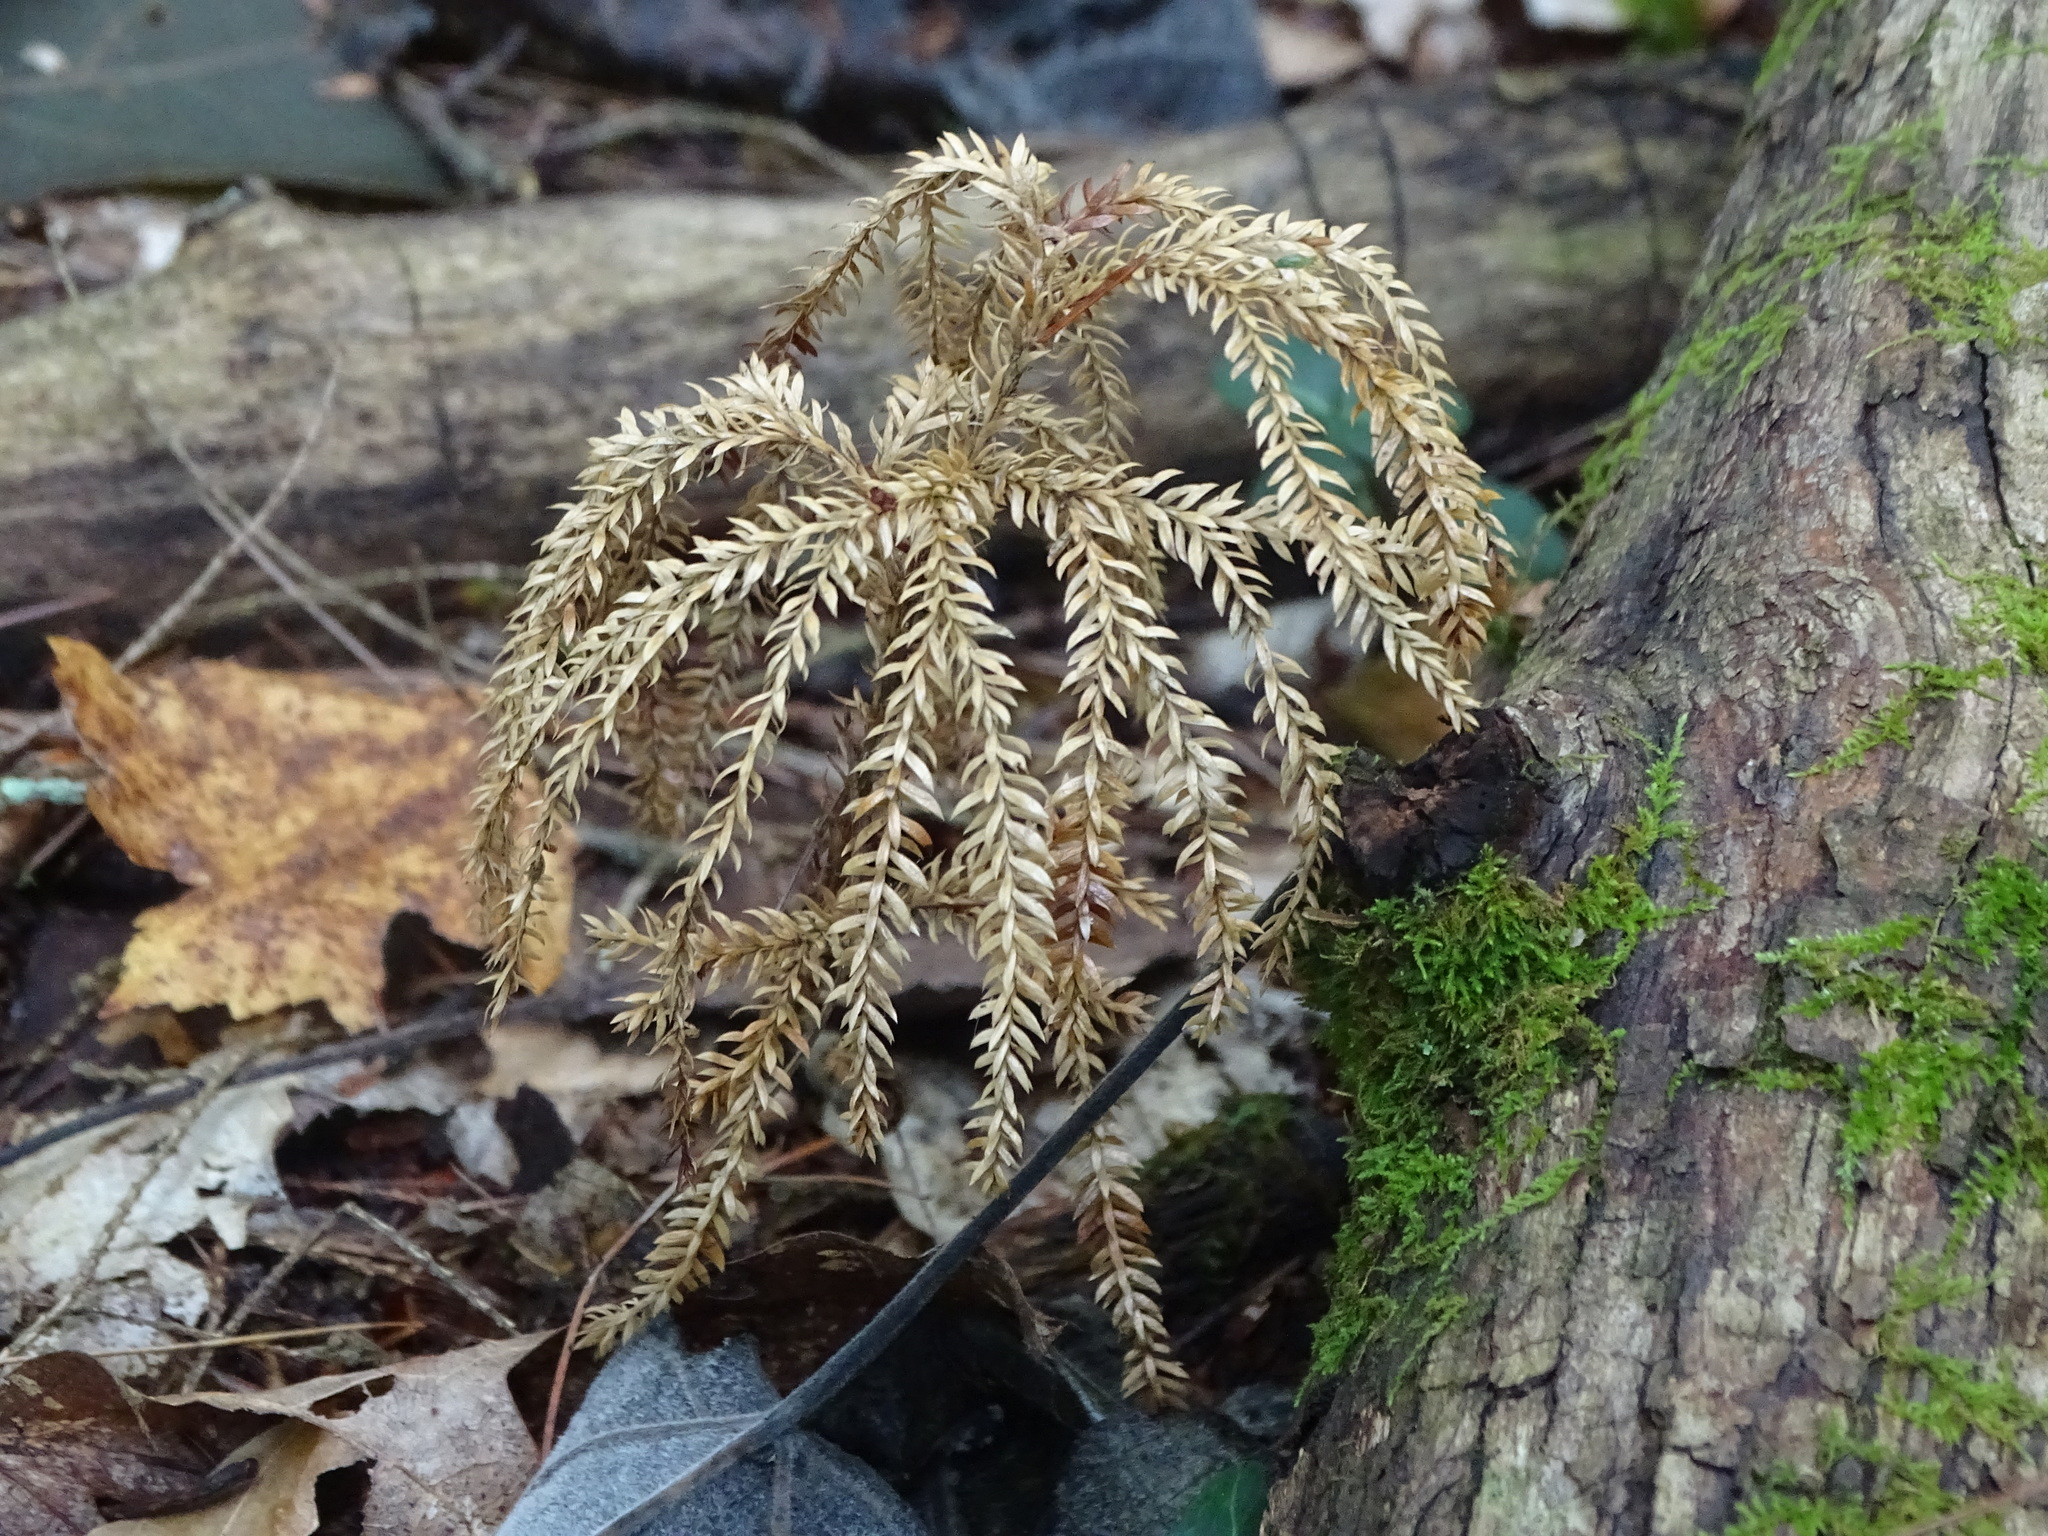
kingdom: Plantae
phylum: Tracheophyta
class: Lycopodiopsida
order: Lycopodiales
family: Lycopodiaceae
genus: Dendrolycopodium
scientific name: Dendrolycopodium dendroideum
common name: Northern tree-clubmoss
